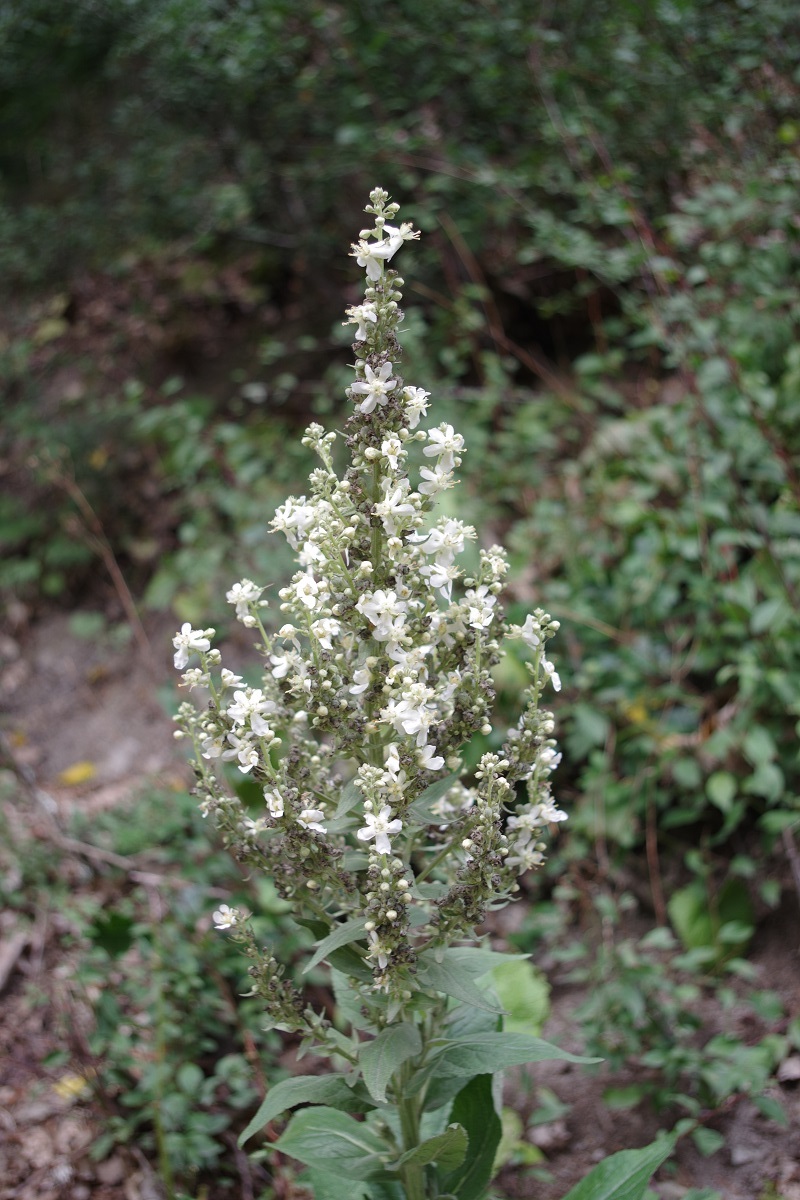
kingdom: Plantae
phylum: Tracheophyta
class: Magnoliopsida
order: Lamiales
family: Scrophulariaceae
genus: Verbascum
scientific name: Verbascum lychnitis
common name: White mullein
